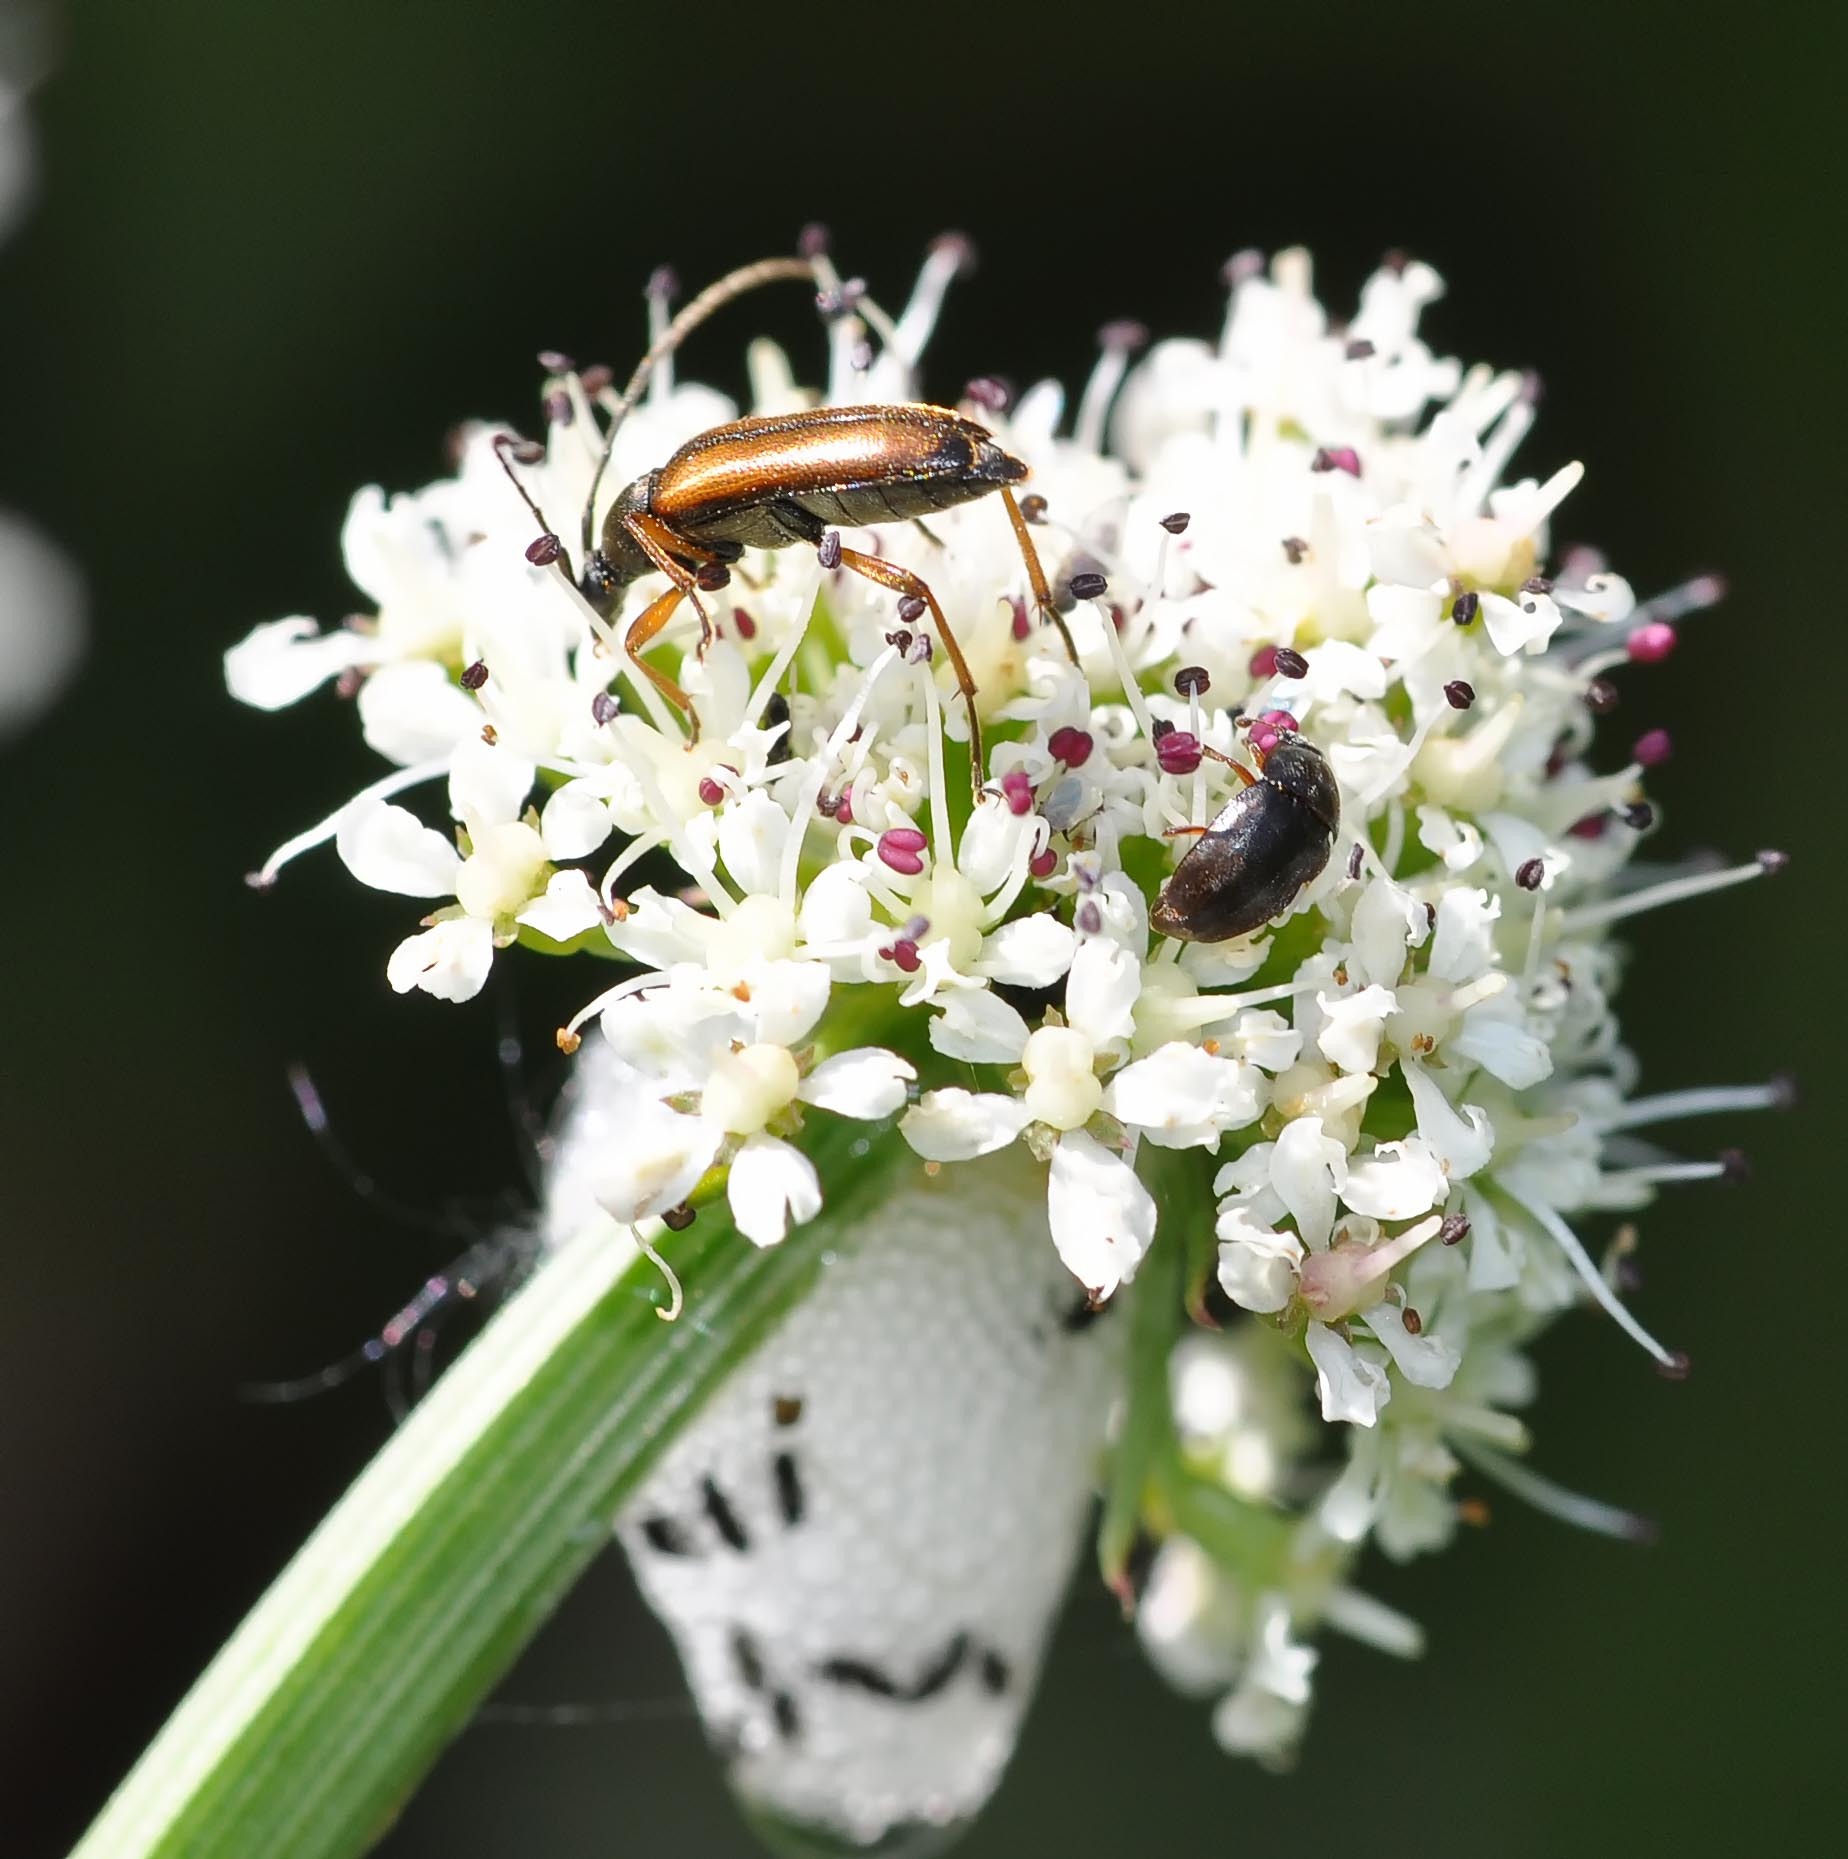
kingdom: Animalia
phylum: Arthropoda
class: Insecta
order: Coleoptera
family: Cerambycidae
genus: Alosterna
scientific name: Alosterna tabacicolor
